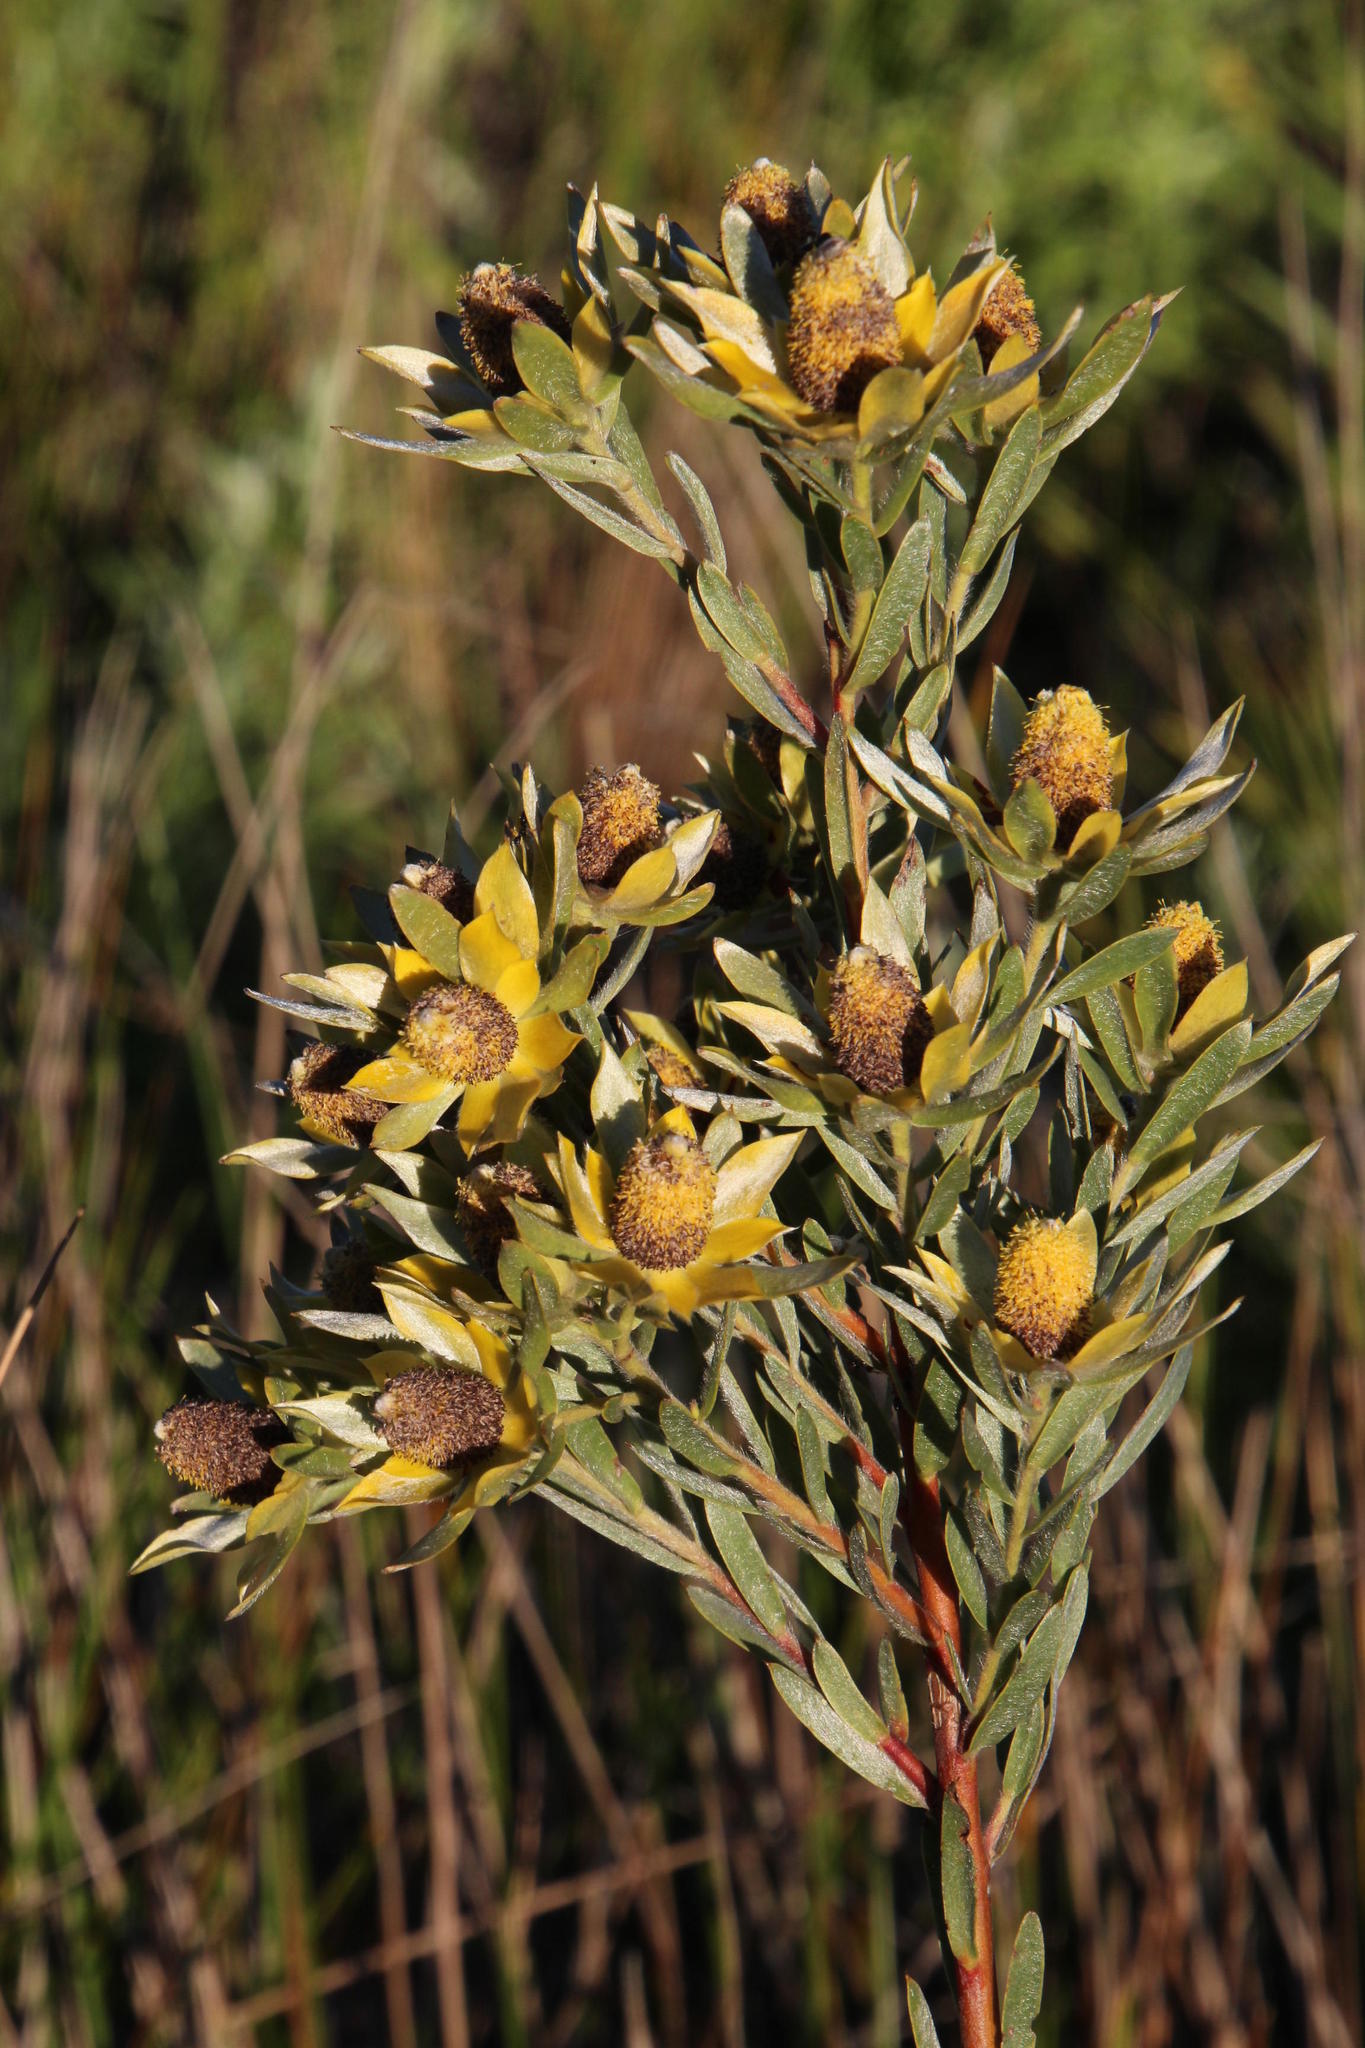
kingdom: Plantae
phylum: Tracheophyta
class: Magnoliopsida
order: Proteales
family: Proteaceae
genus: Leucadendron
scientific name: Leucadendron floridum
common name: Flats conebush
